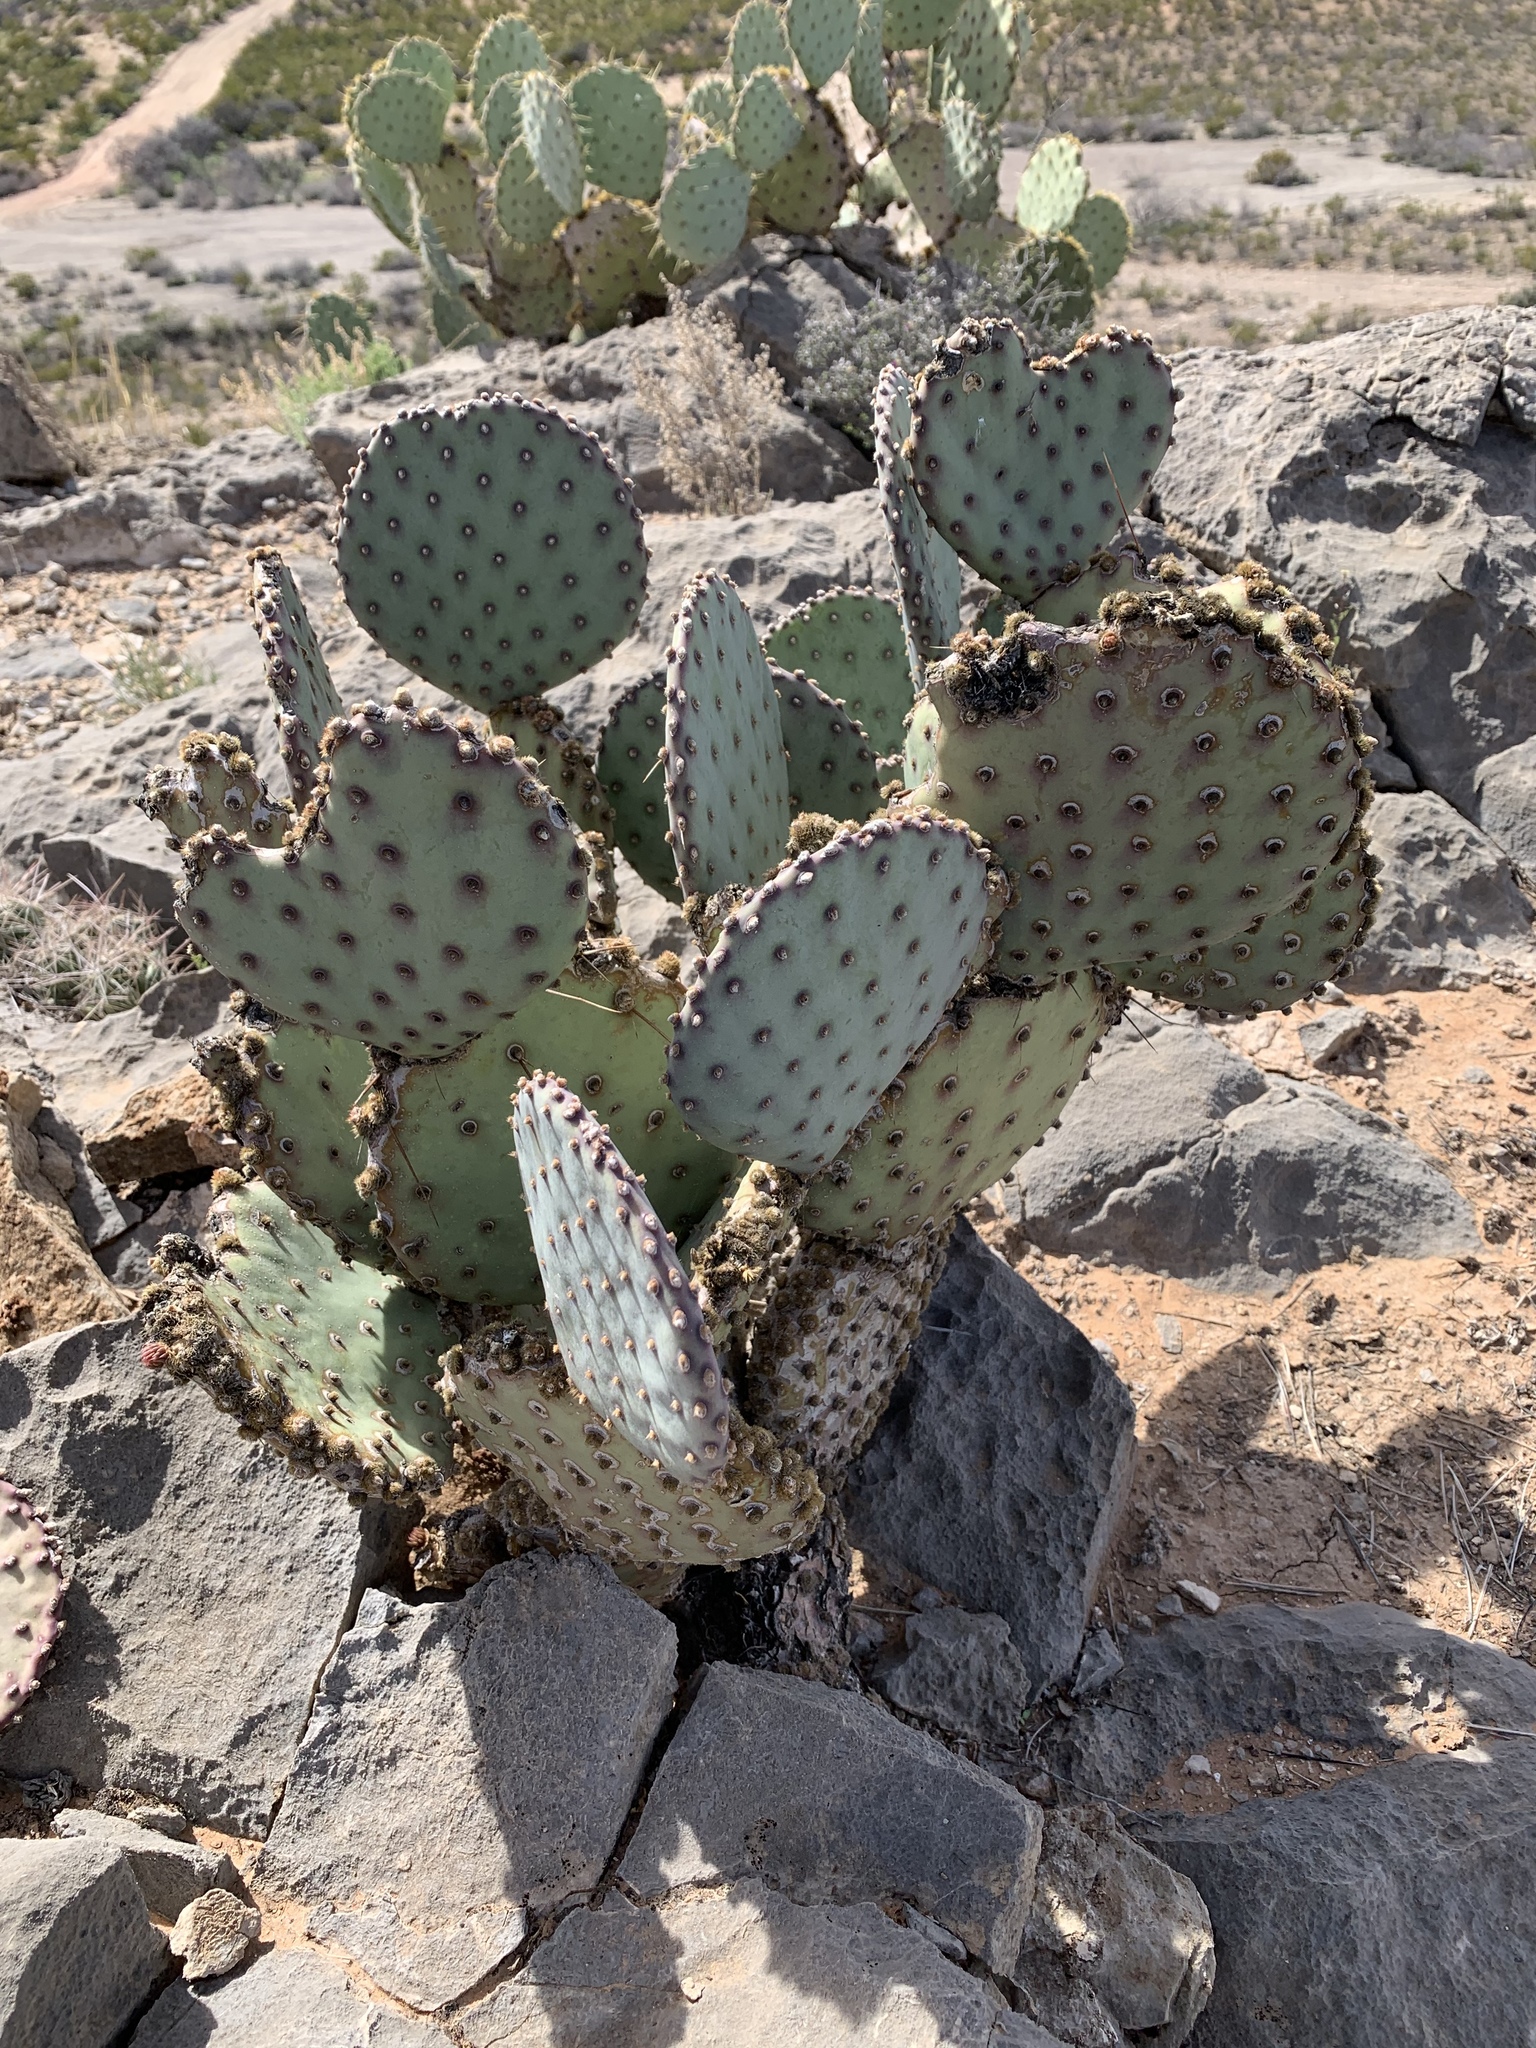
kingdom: Plantae
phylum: Tracheophyta
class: Magnoliopsida
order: Caryophyllales
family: Cactaceae
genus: Opuntia
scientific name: Opuntia macrocentra
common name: Purple prickly-pear
